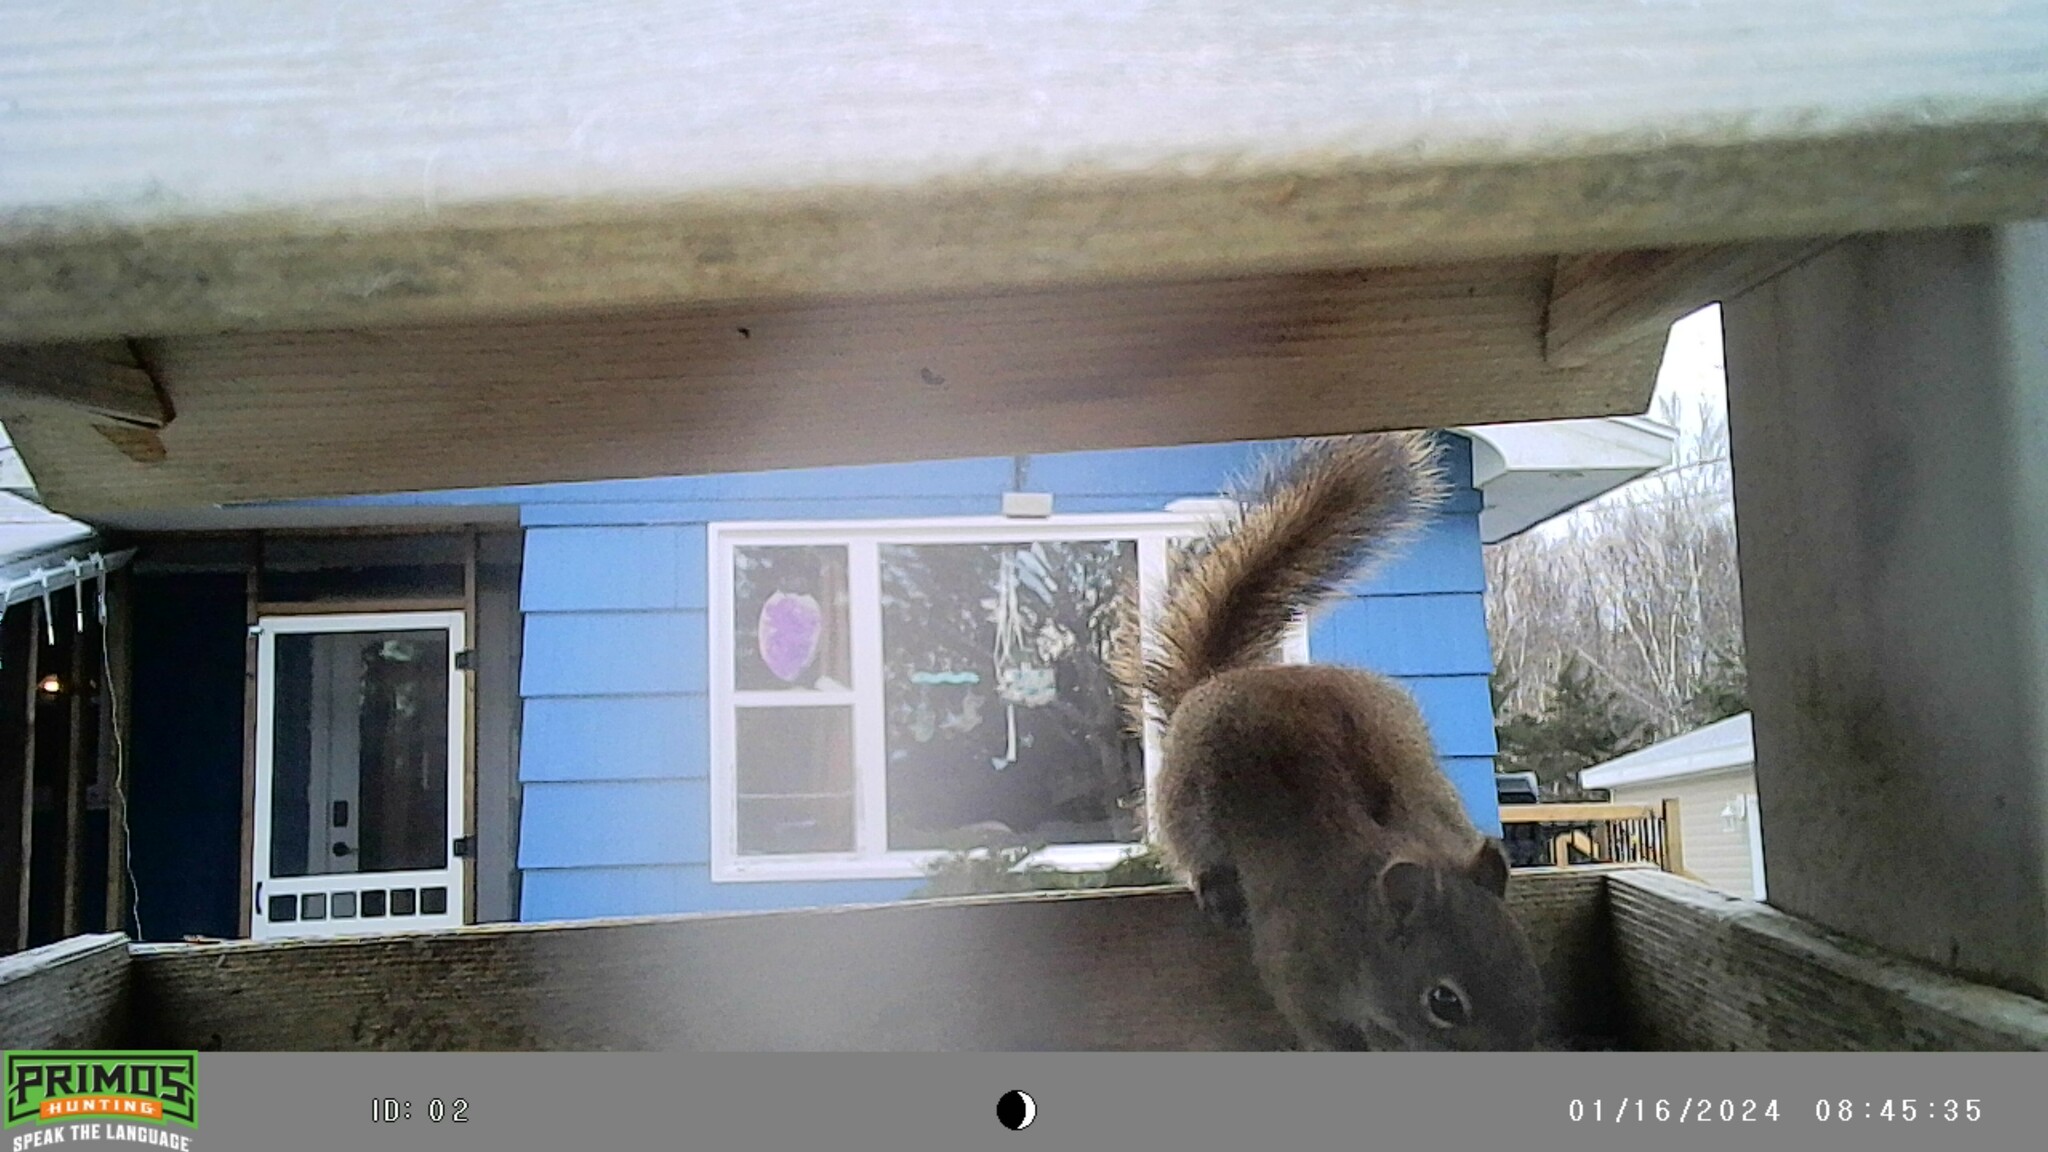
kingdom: Animalia
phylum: Chordata
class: Mammalia
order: Rodentia
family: Sciuridae
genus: Tamiasciurus
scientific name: Tamiasciurus hudsonicus
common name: Red squirrel
